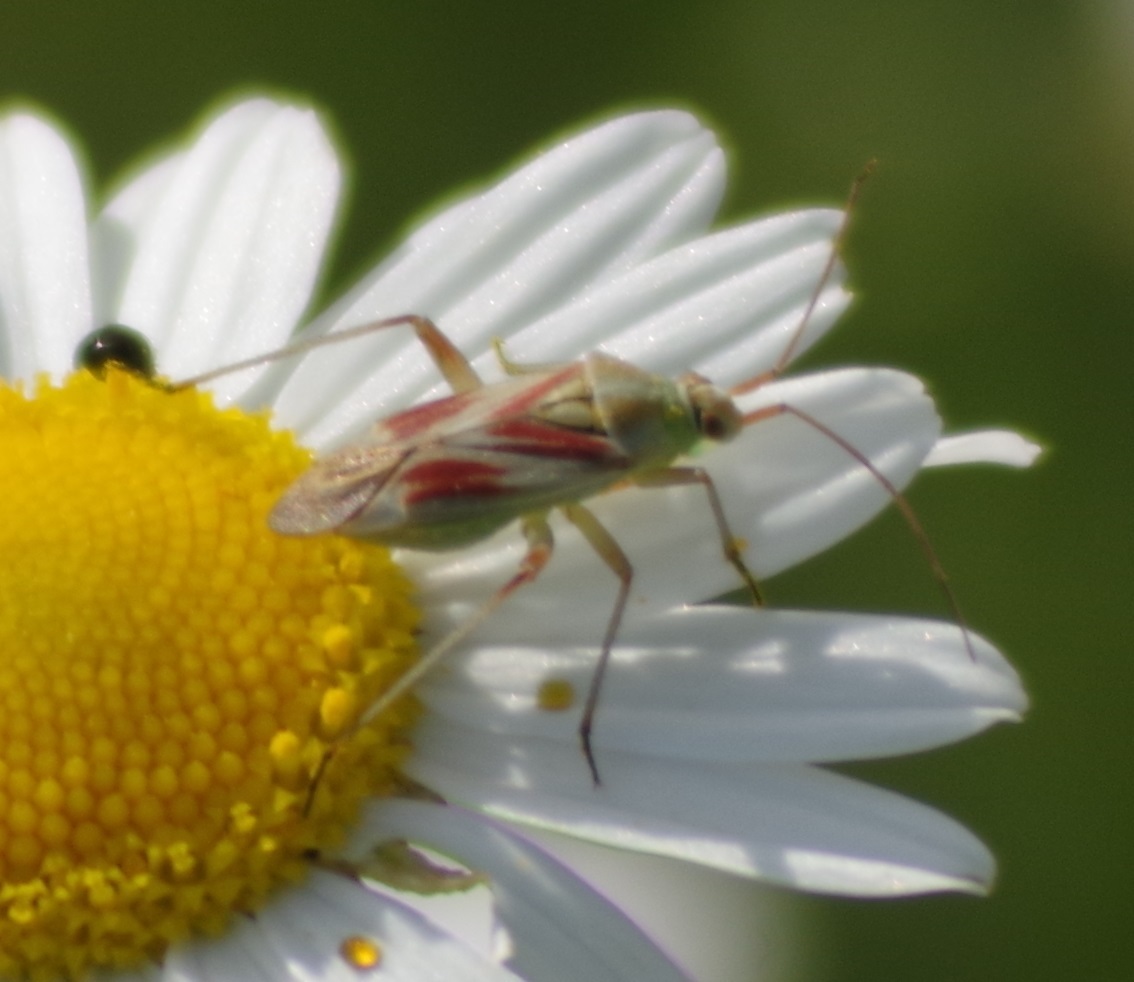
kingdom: Animalia
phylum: Arthropoda
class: Insecta
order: Hemiptera
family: Miridae
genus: Calocoris
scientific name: Calocoris roseomaculatus
